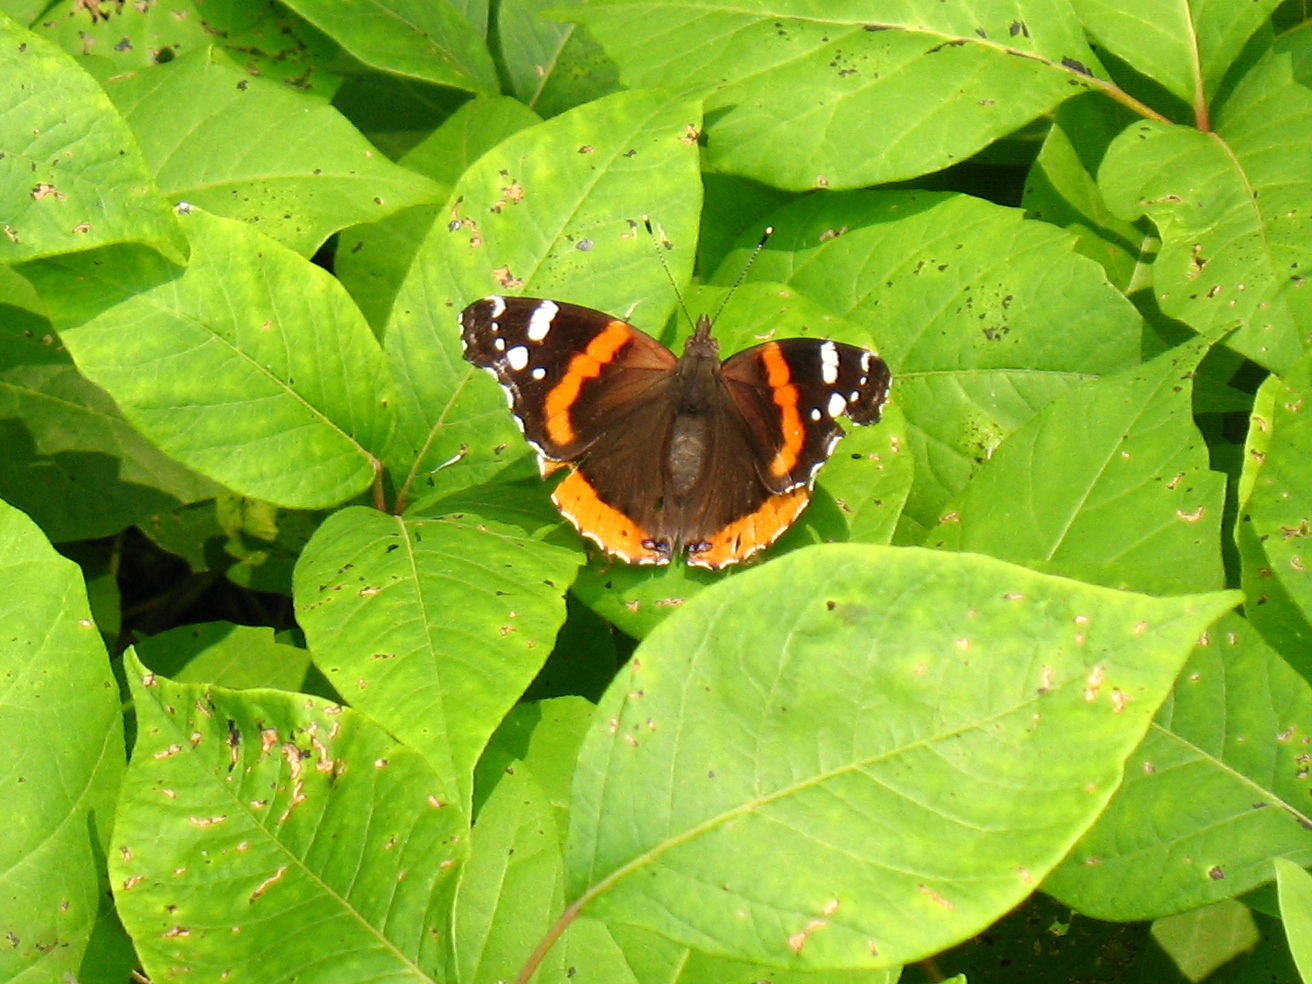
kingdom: Animalia
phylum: Arthropoda
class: Insecta
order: Lepidoptera
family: Nymphalidae
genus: Vanessa
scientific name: Vanessa atalanta
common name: Red admiral
